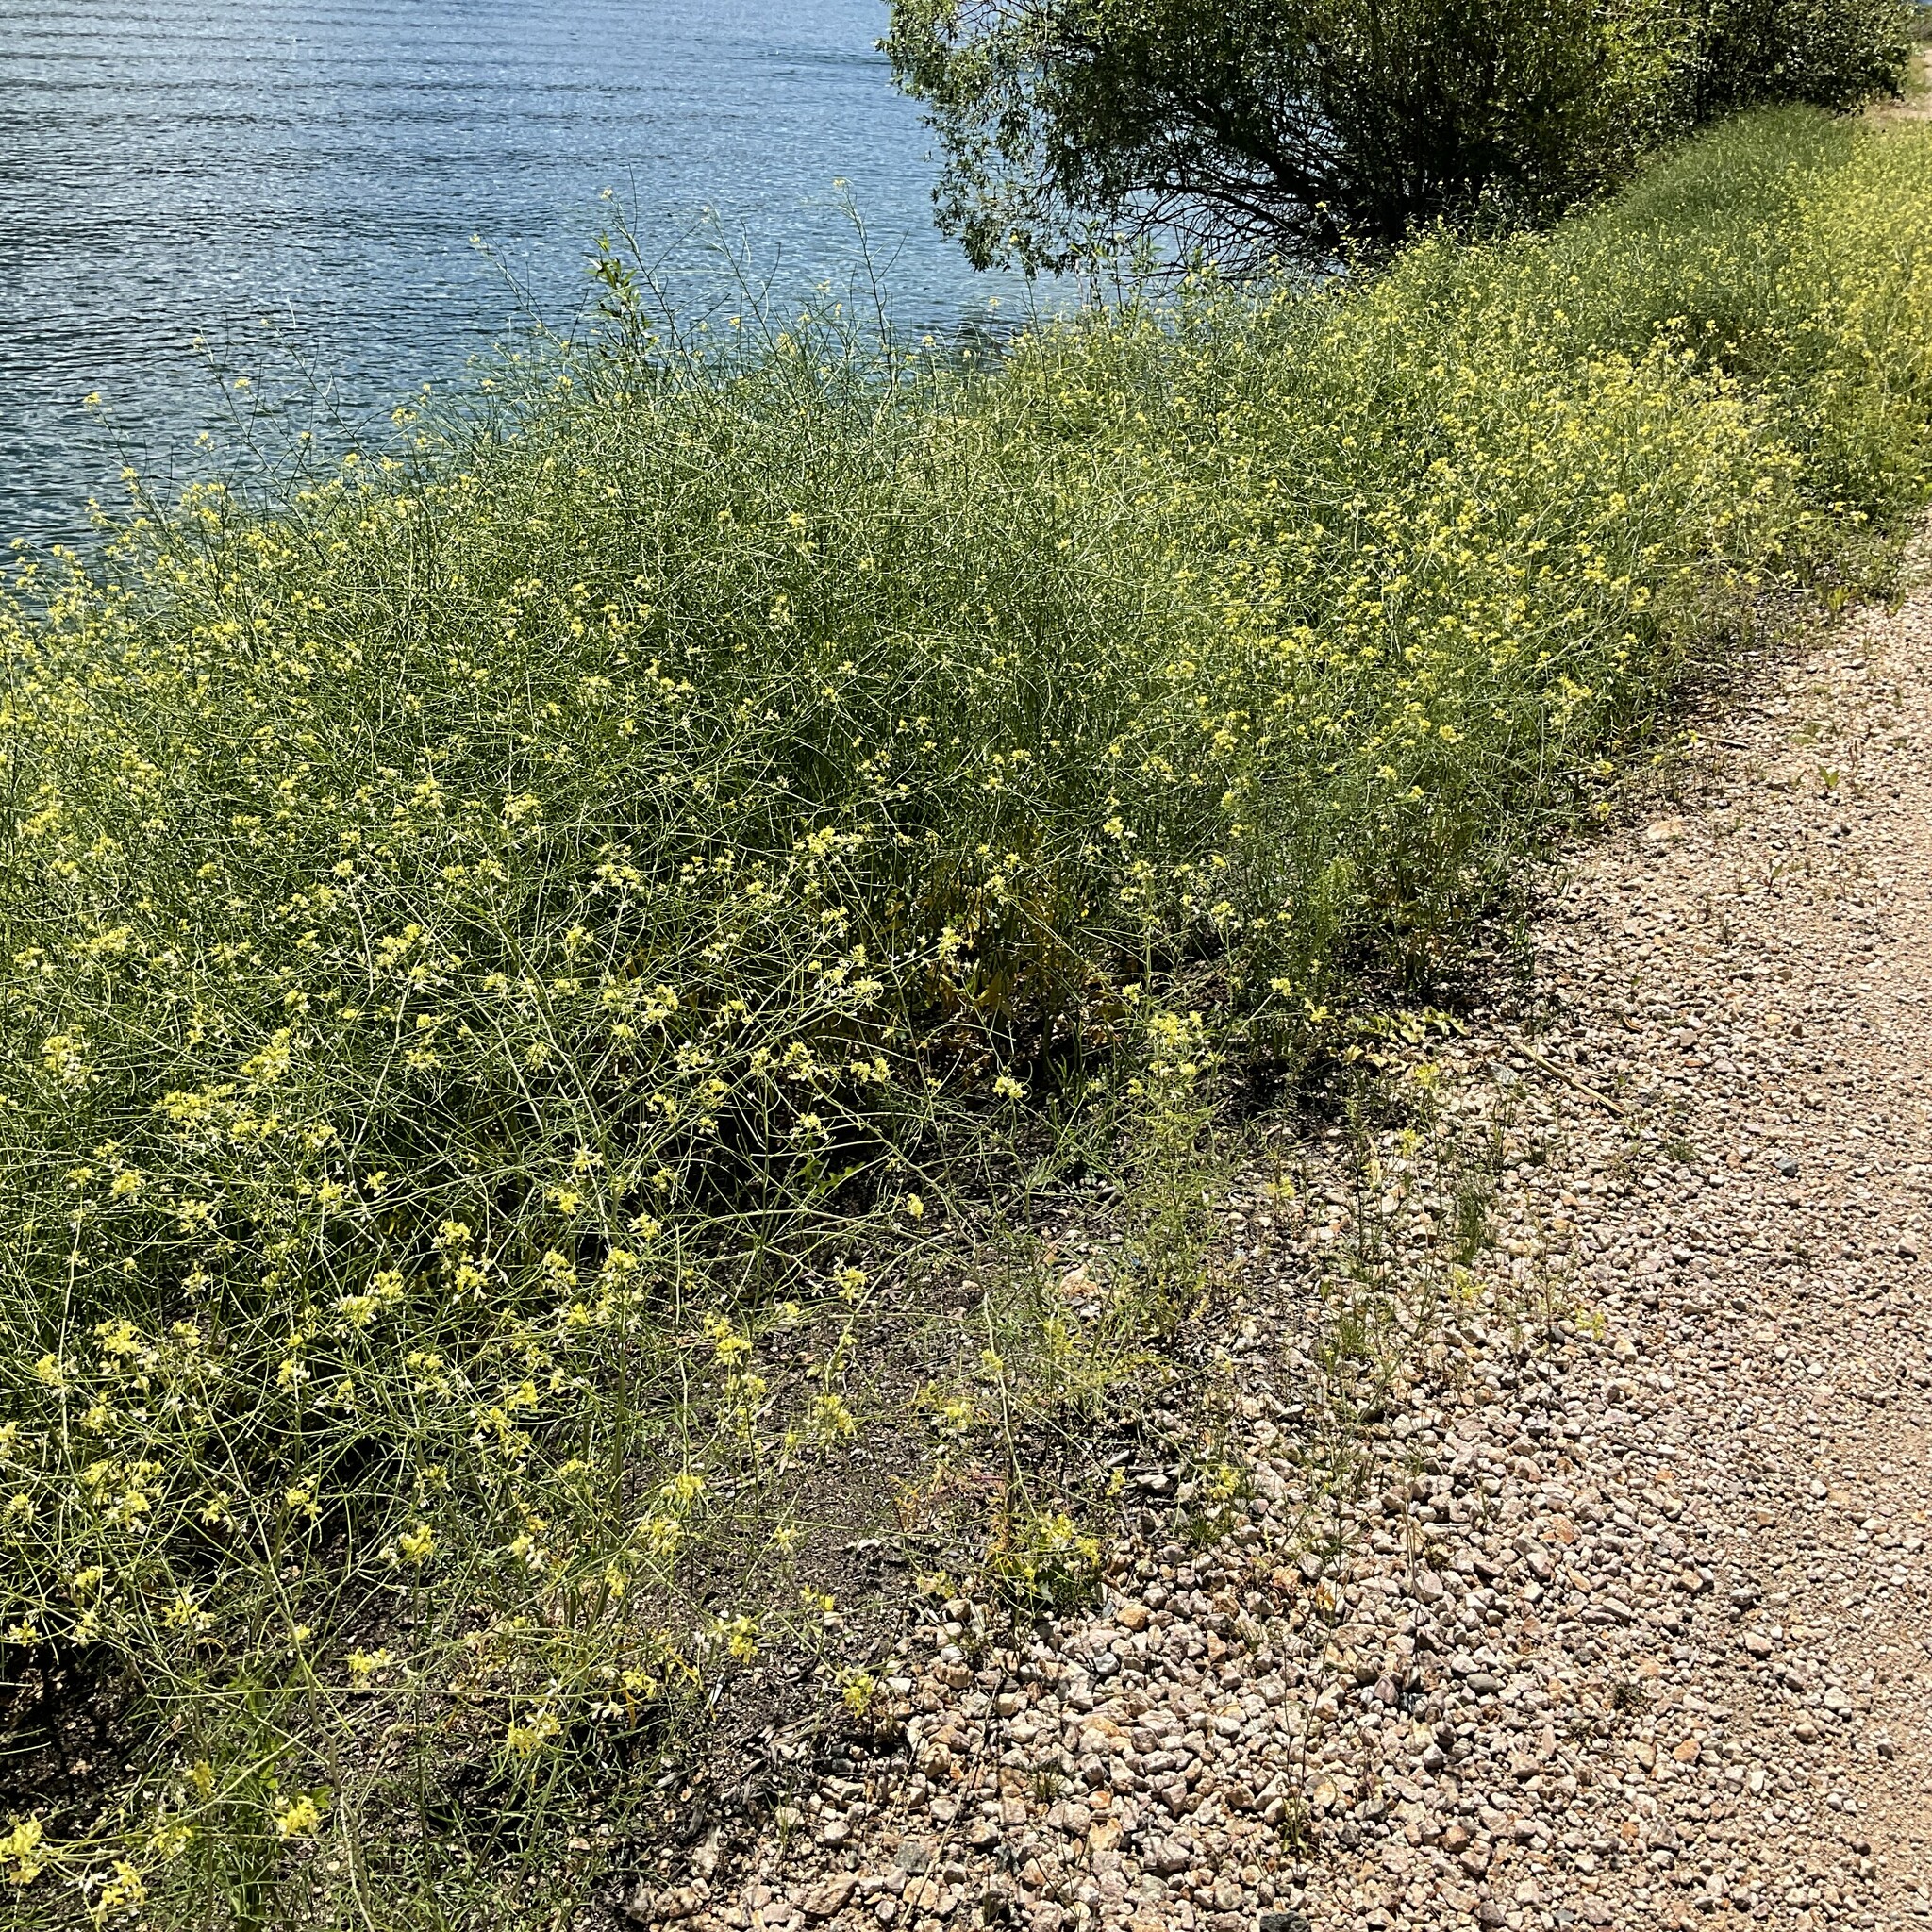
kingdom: Plantae
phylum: Tracheophyta
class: Magnoliopsida
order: Brassicales
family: Brassicaceae
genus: Sisymbrium
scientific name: Sisymbrium altissimum
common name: Tall rocket
